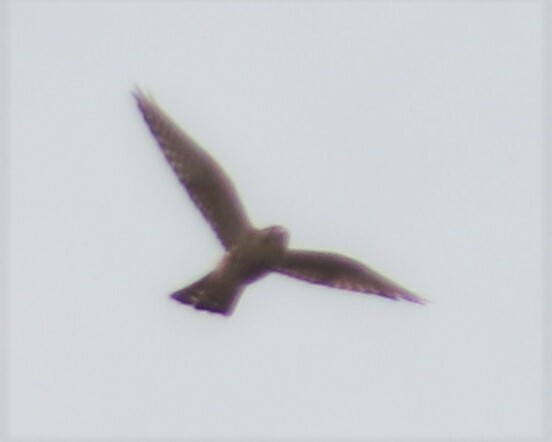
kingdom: Animalia
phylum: Chordata
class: Aves
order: Falconiformes
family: Falconidae
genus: Falco
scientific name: Falco columbarius
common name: Merlin
